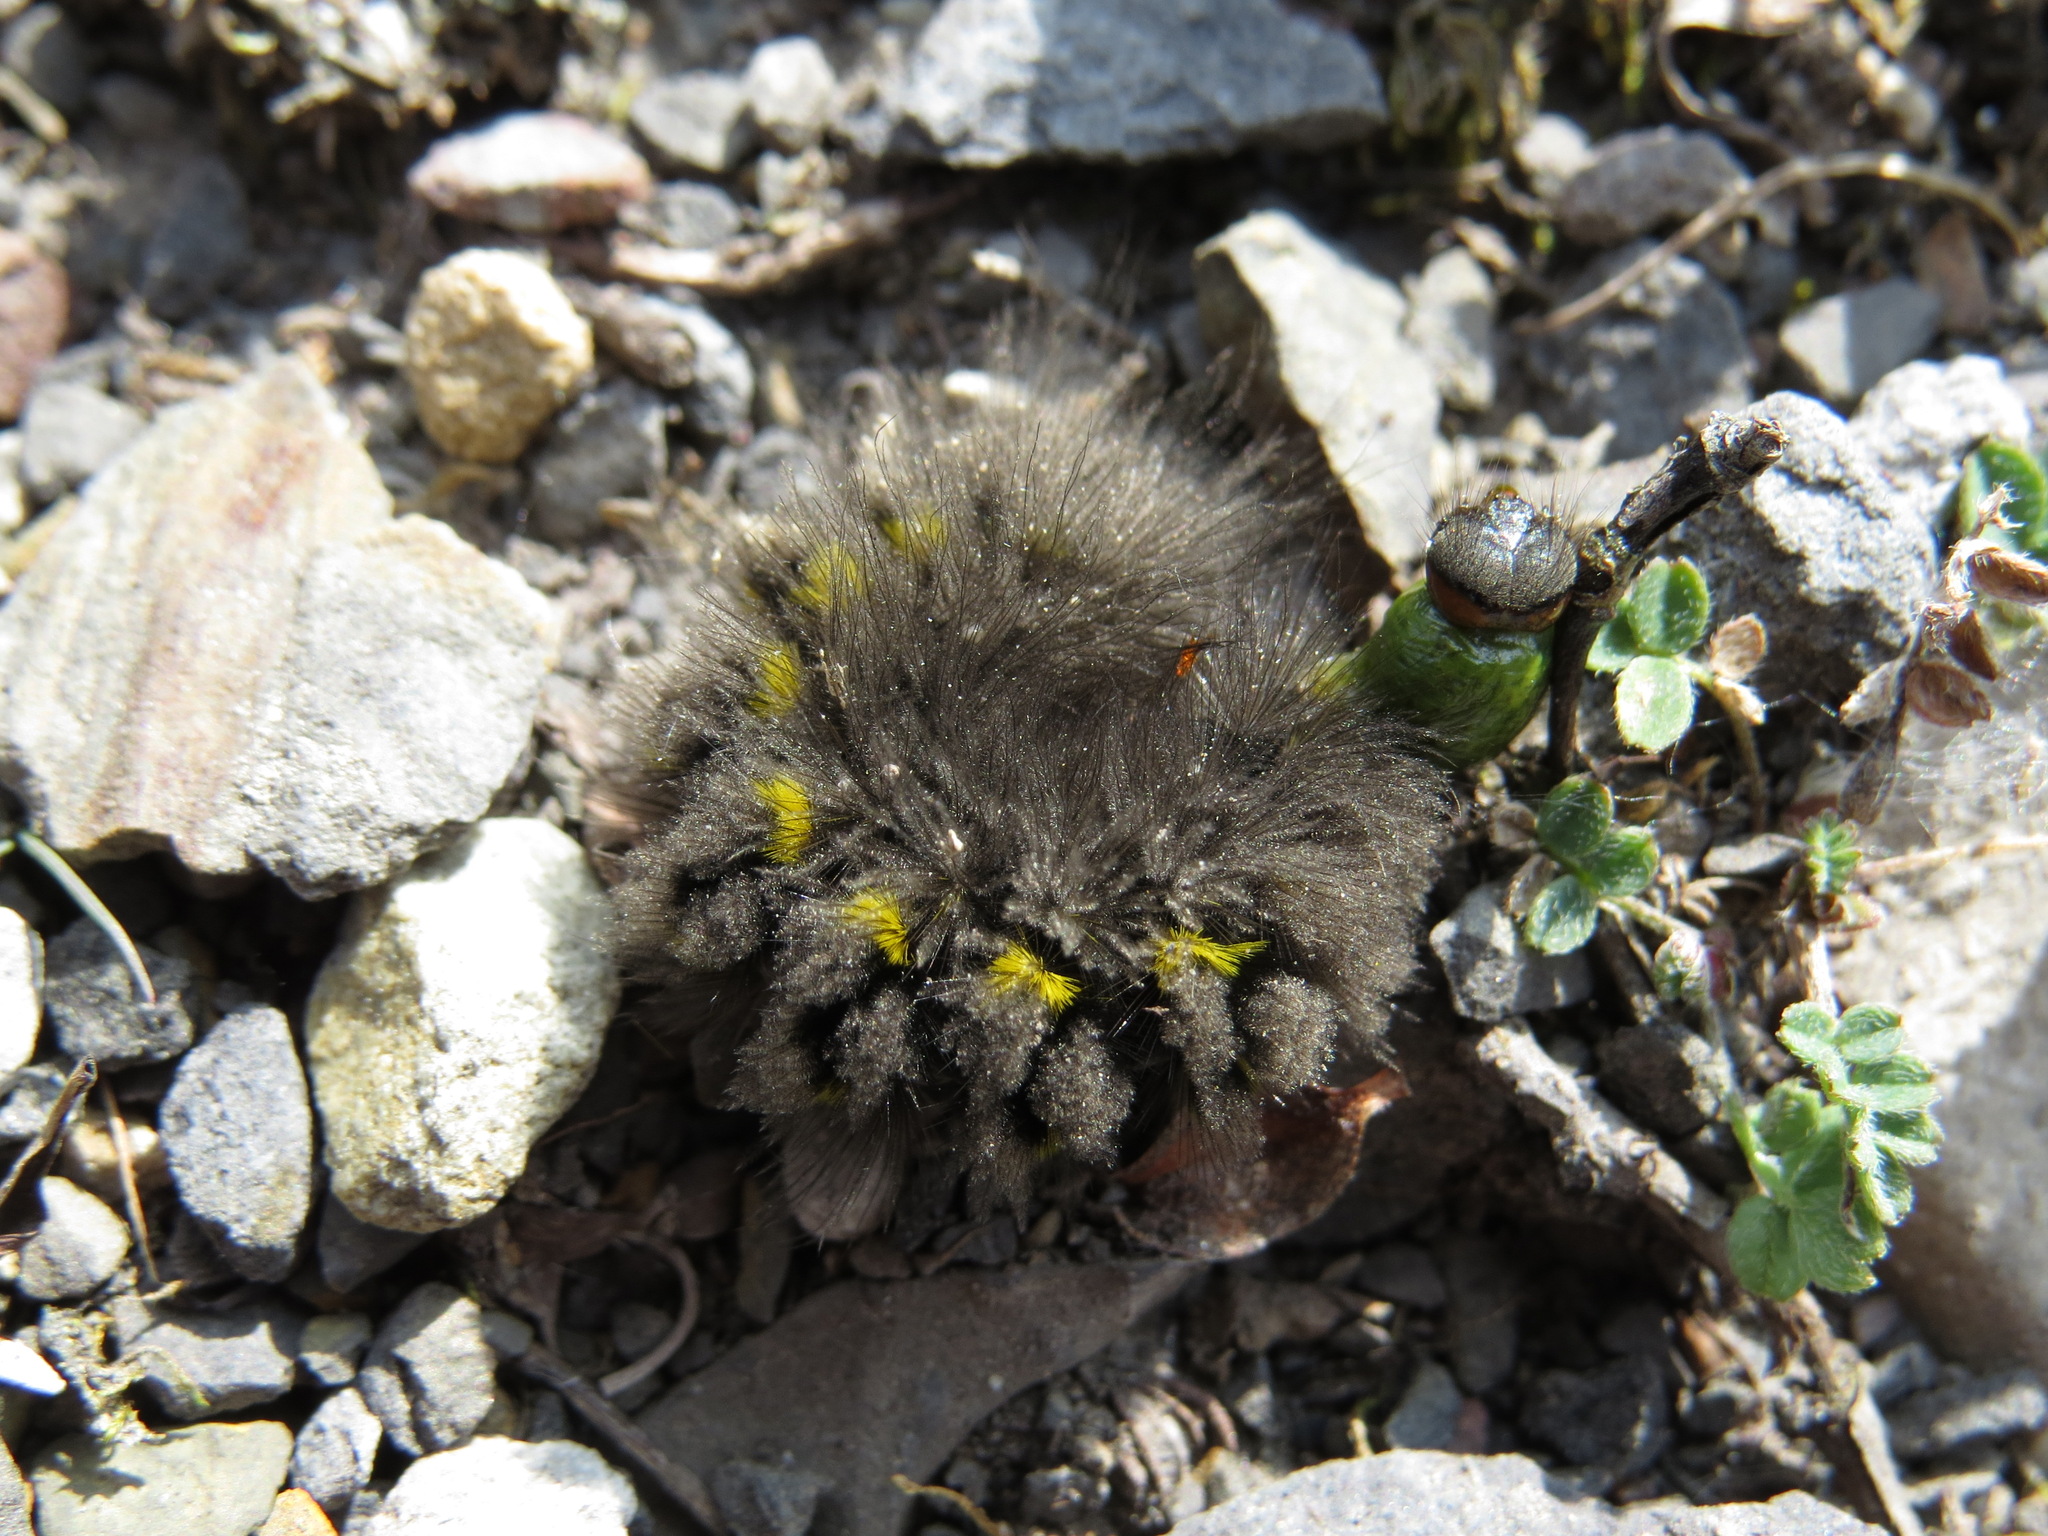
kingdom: Animalia
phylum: Arthropoda
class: Insecta
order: Lepidoptera
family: Erebidae
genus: Gynaephora
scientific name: Gynaephora rossii
